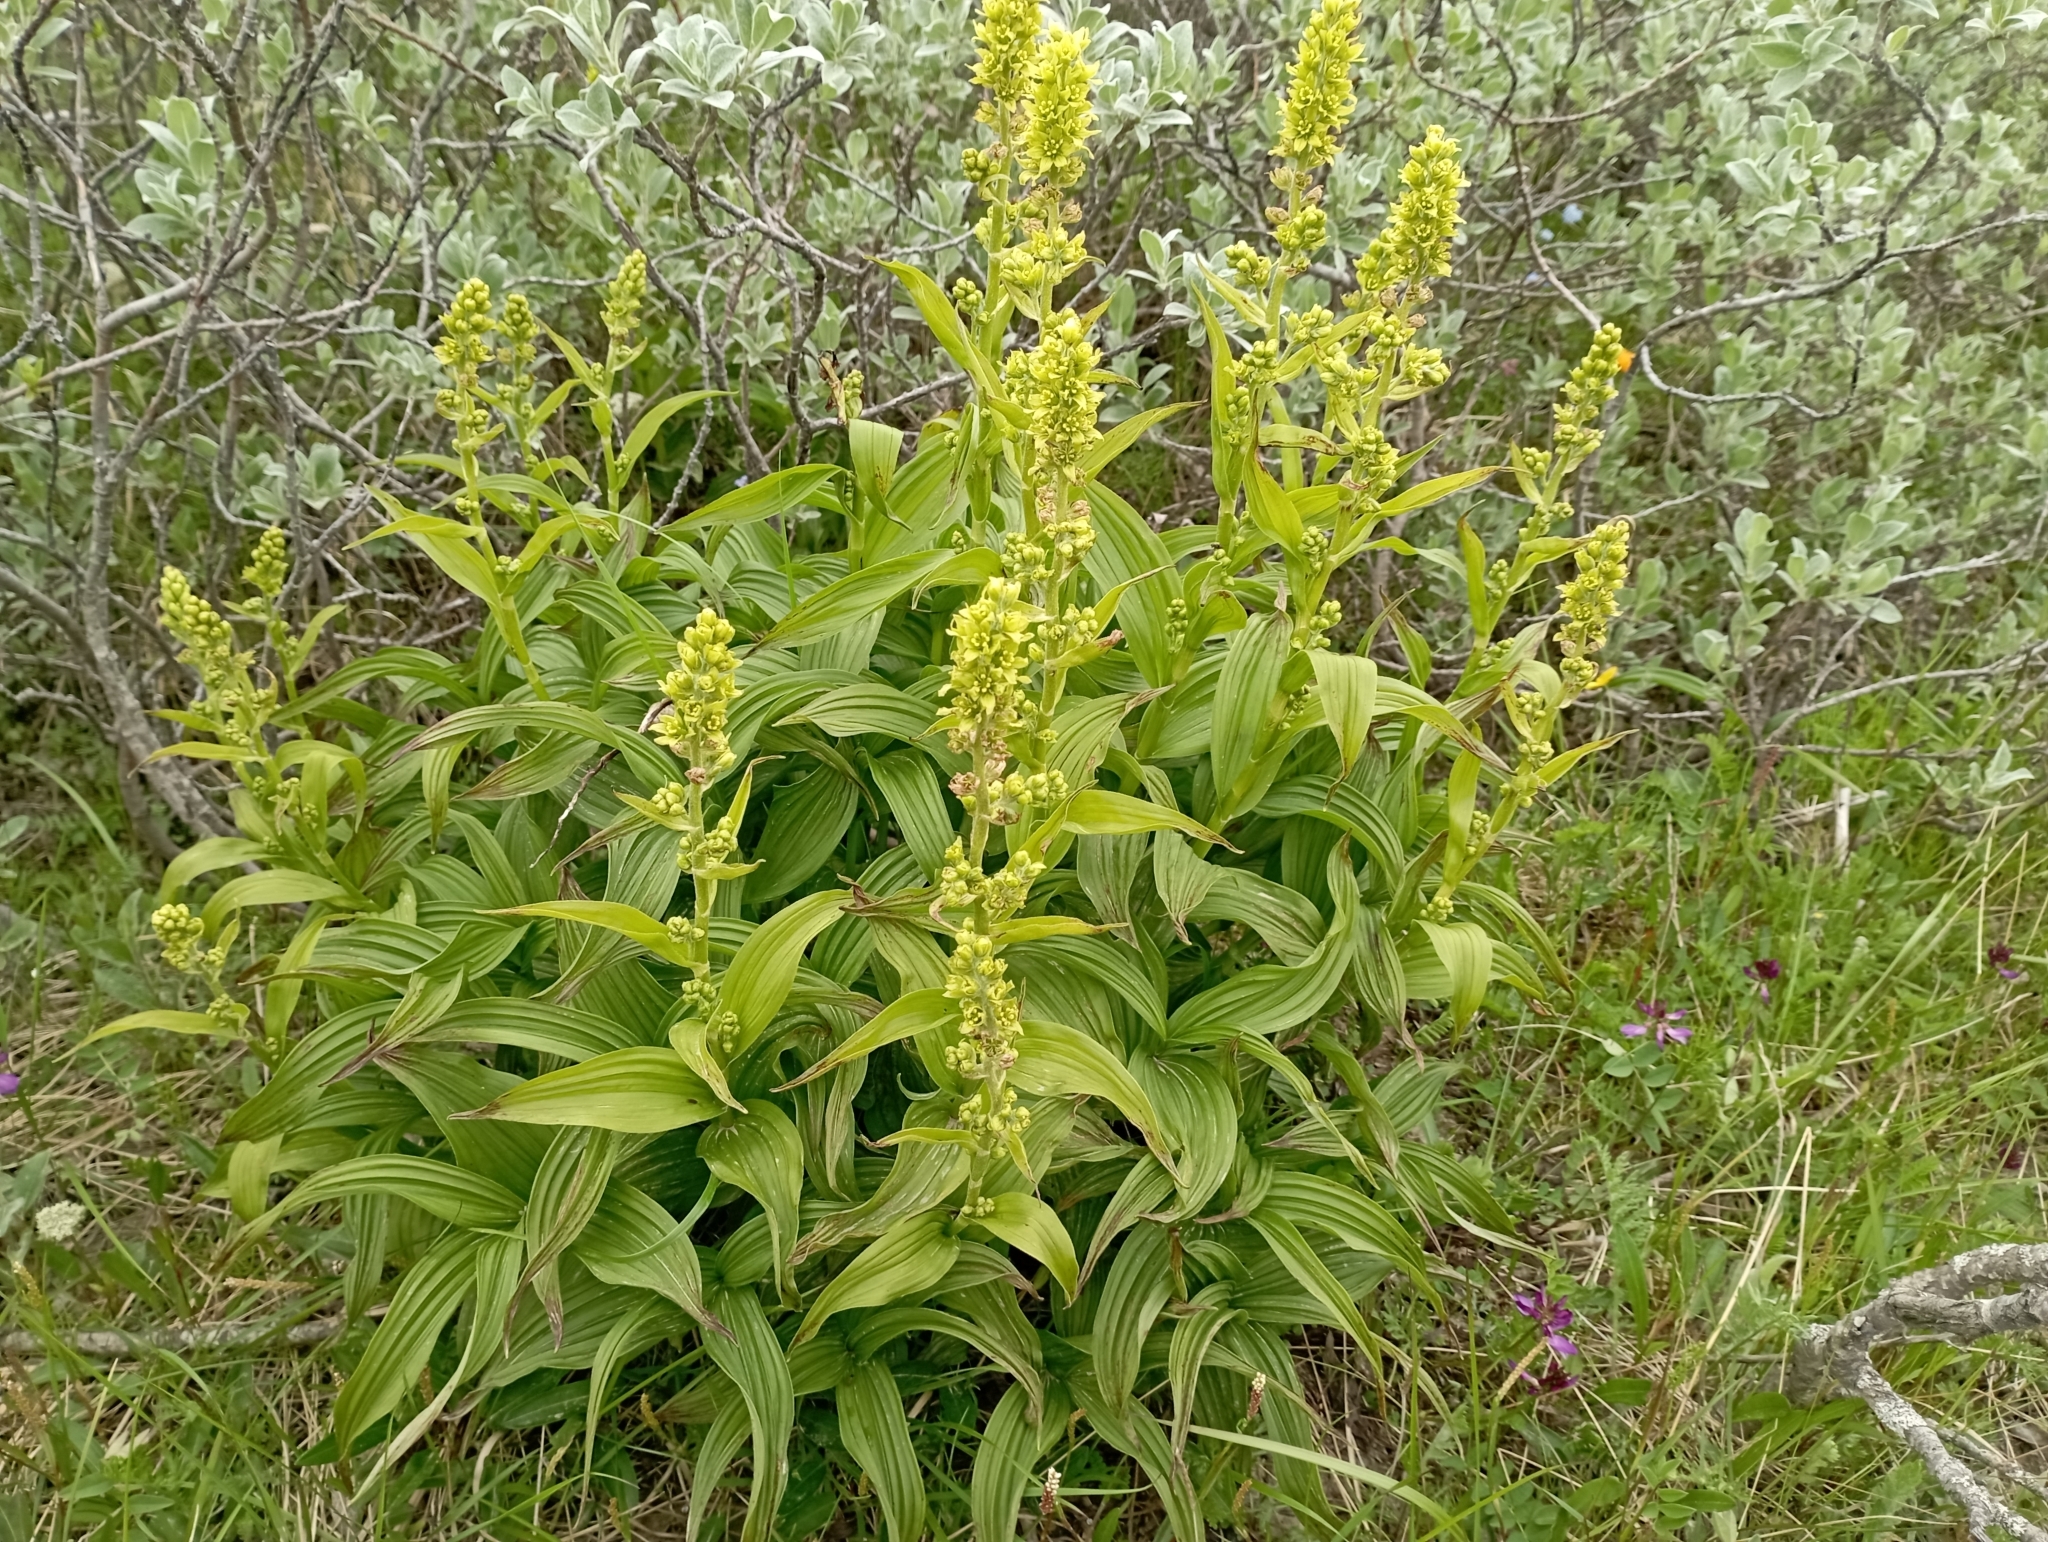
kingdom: Plantae
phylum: Tracheophyta
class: Liliopsida
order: Liliales
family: Melanthiaceae
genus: Veratrum
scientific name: Veratrum lobelianum
